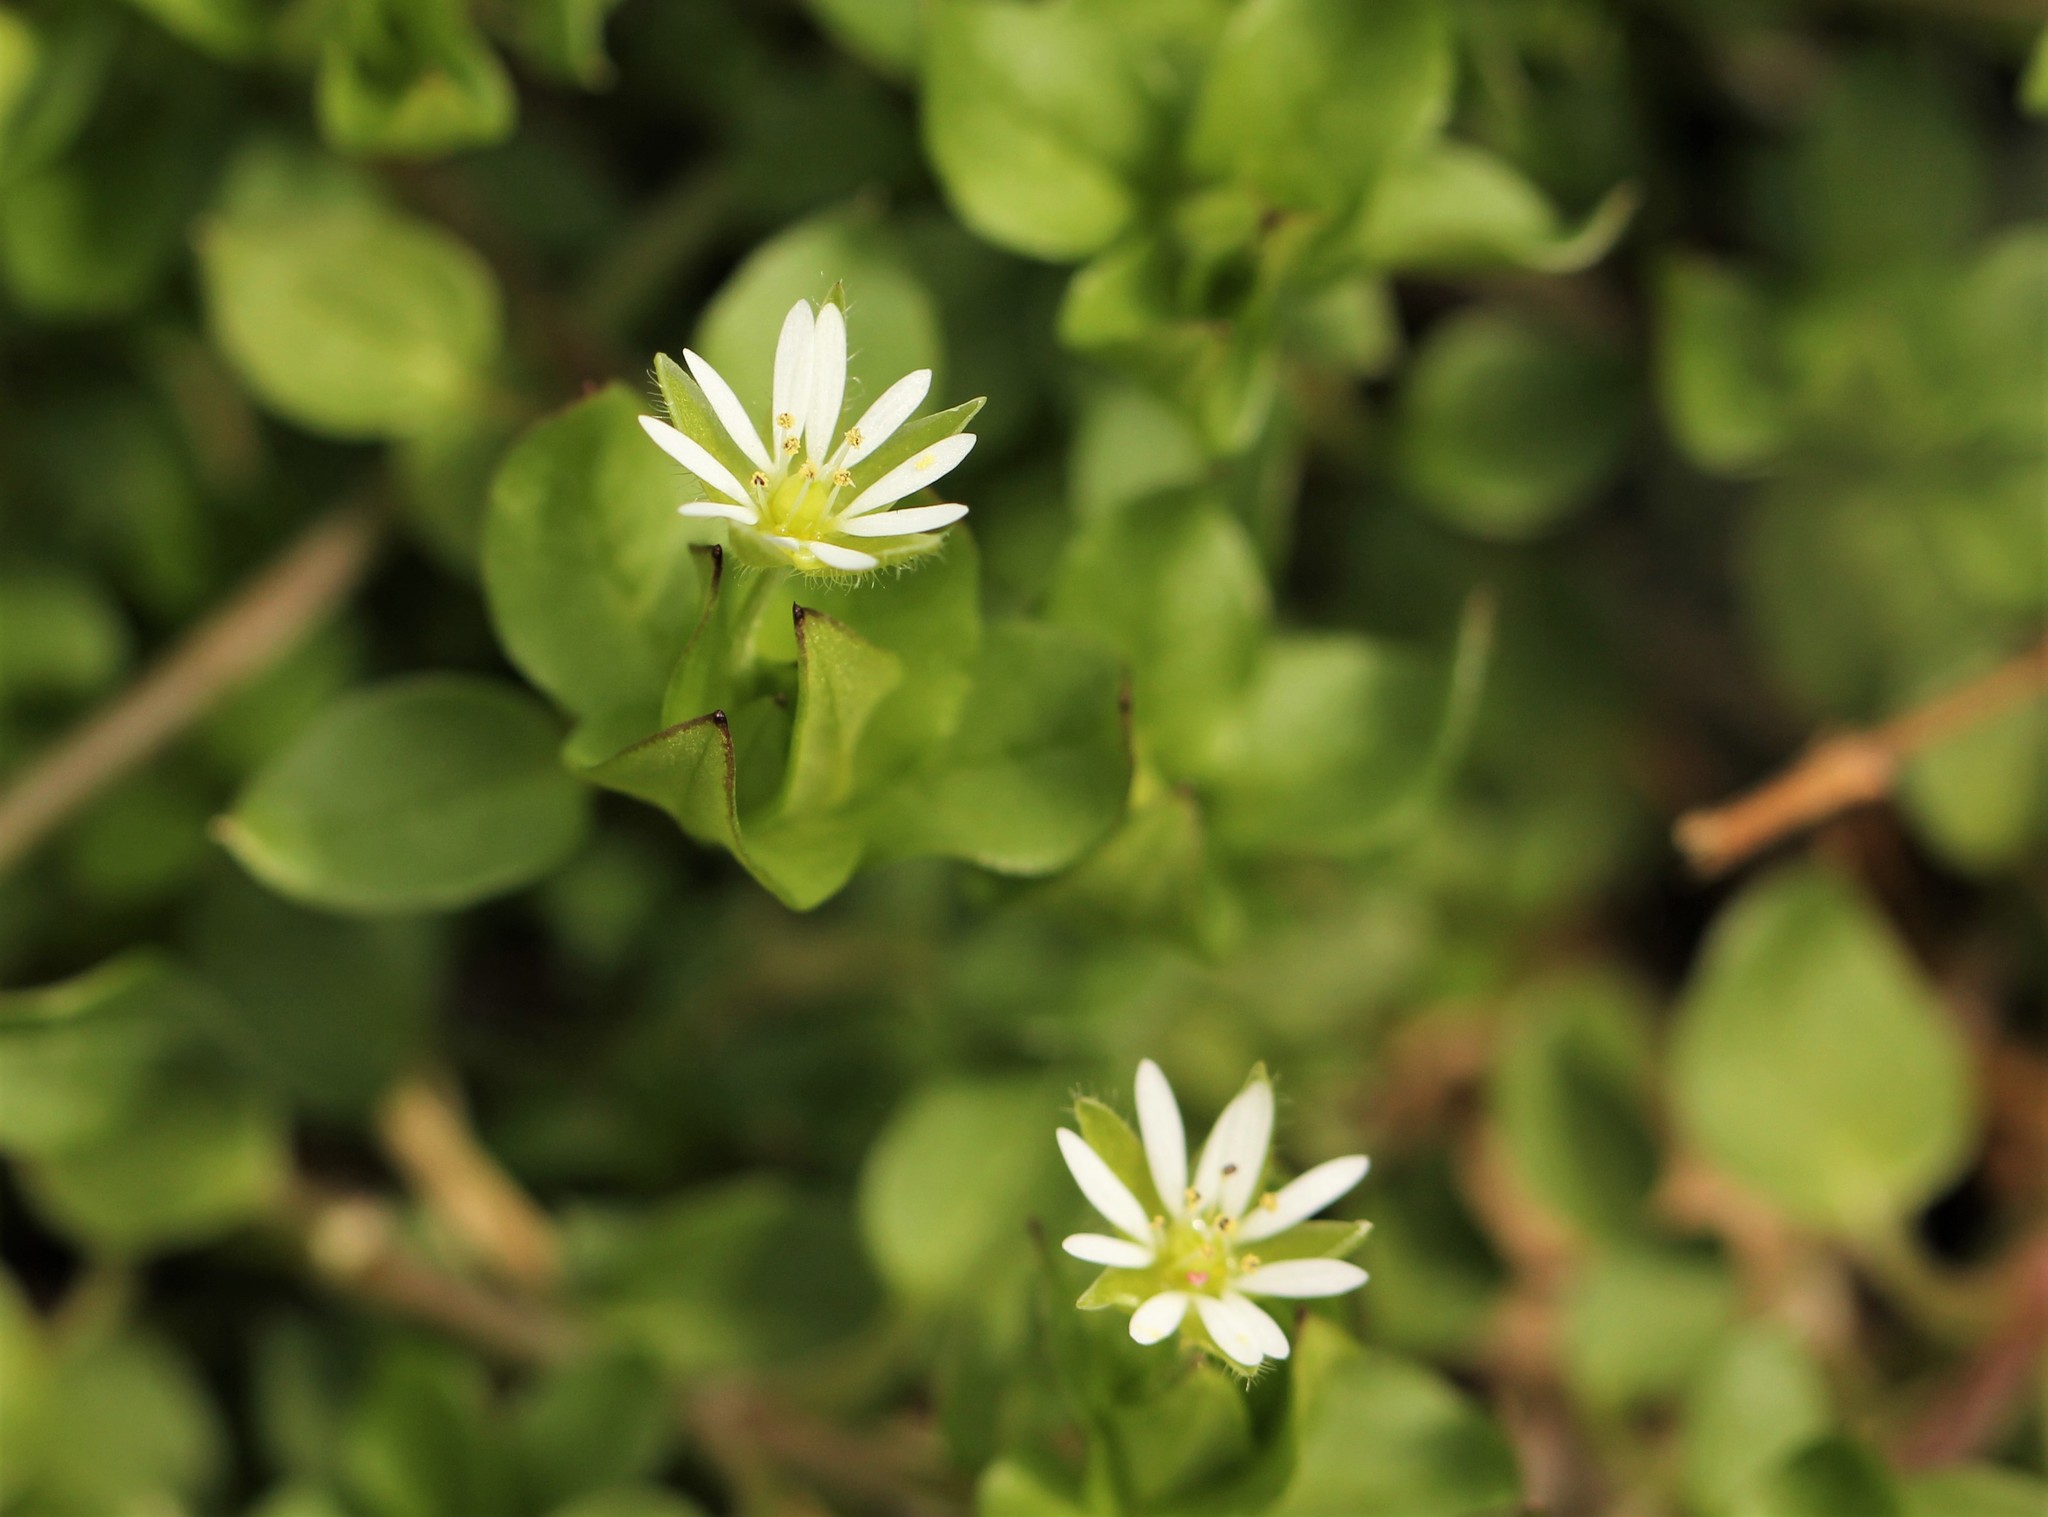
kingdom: Plantae
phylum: Tracheophyta
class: Magnoliopsida
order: Caryophyllales
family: Caryophyllaceae
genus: Stellaria
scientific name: Stellaria media
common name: Common chickweed
